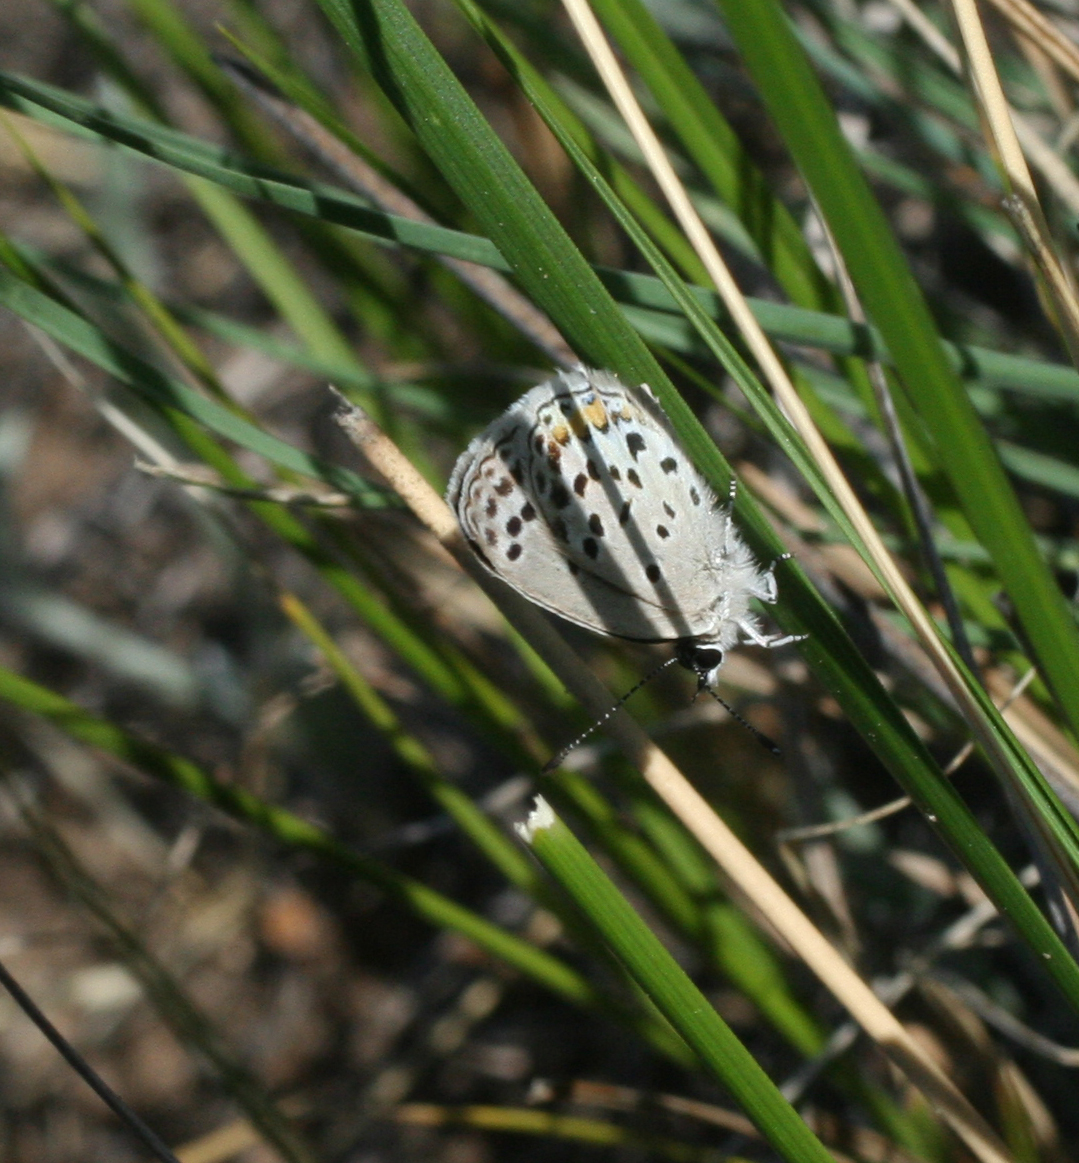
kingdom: Animalia
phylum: Arthropoda
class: Insecta
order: Lepidoptera
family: Lycaenidae
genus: Tongeia
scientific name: Tongeia fischeri
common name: Fischer's blue
